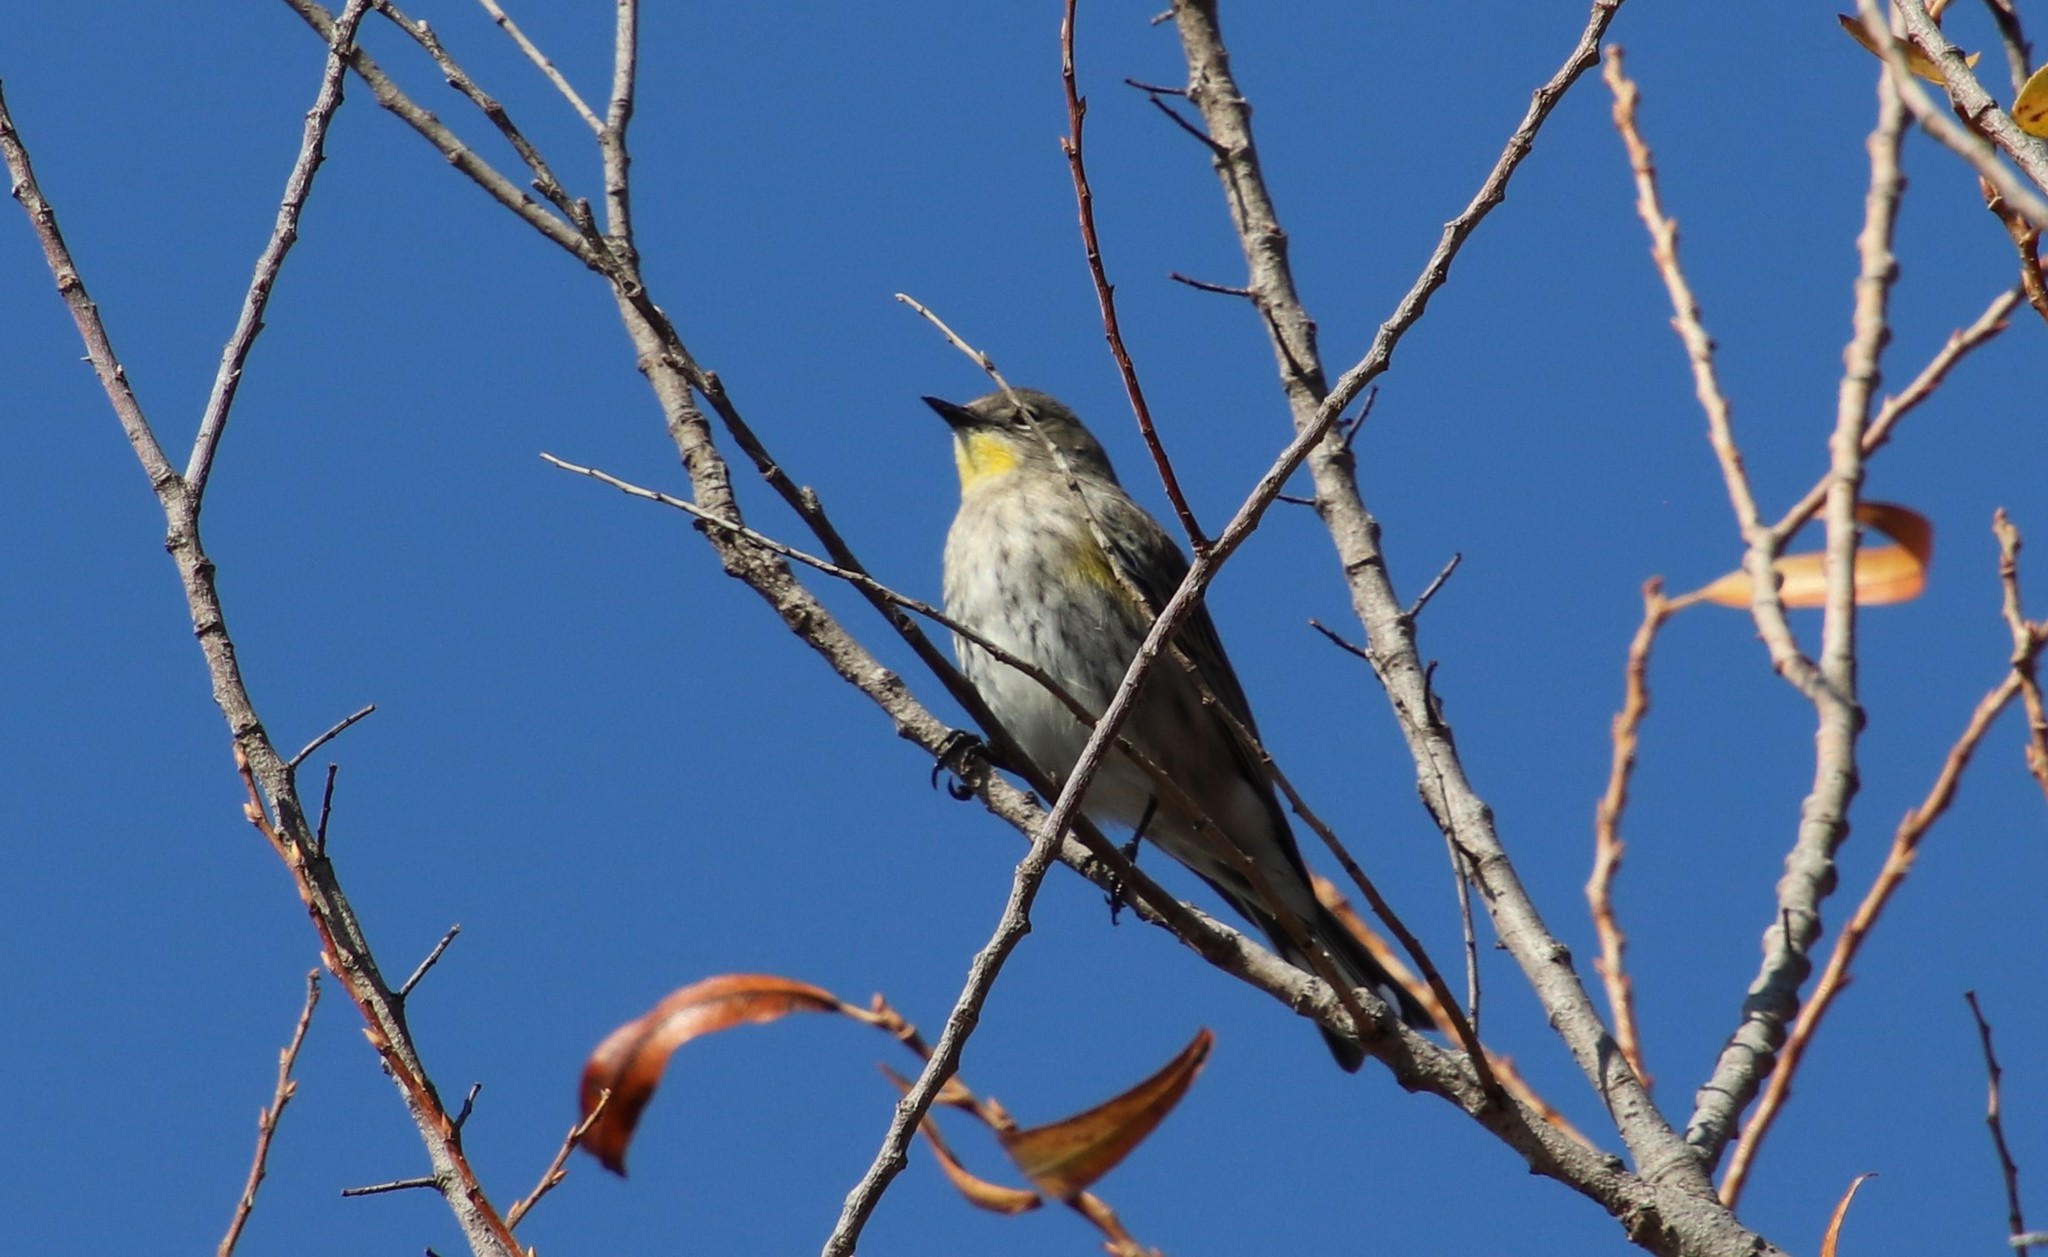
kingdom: Animalia
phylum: Chordata
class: Aves
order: Passeriformes
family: Parulidae
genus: Setophaga
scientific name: Setophaga auduboni
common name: Audubon's warbler
